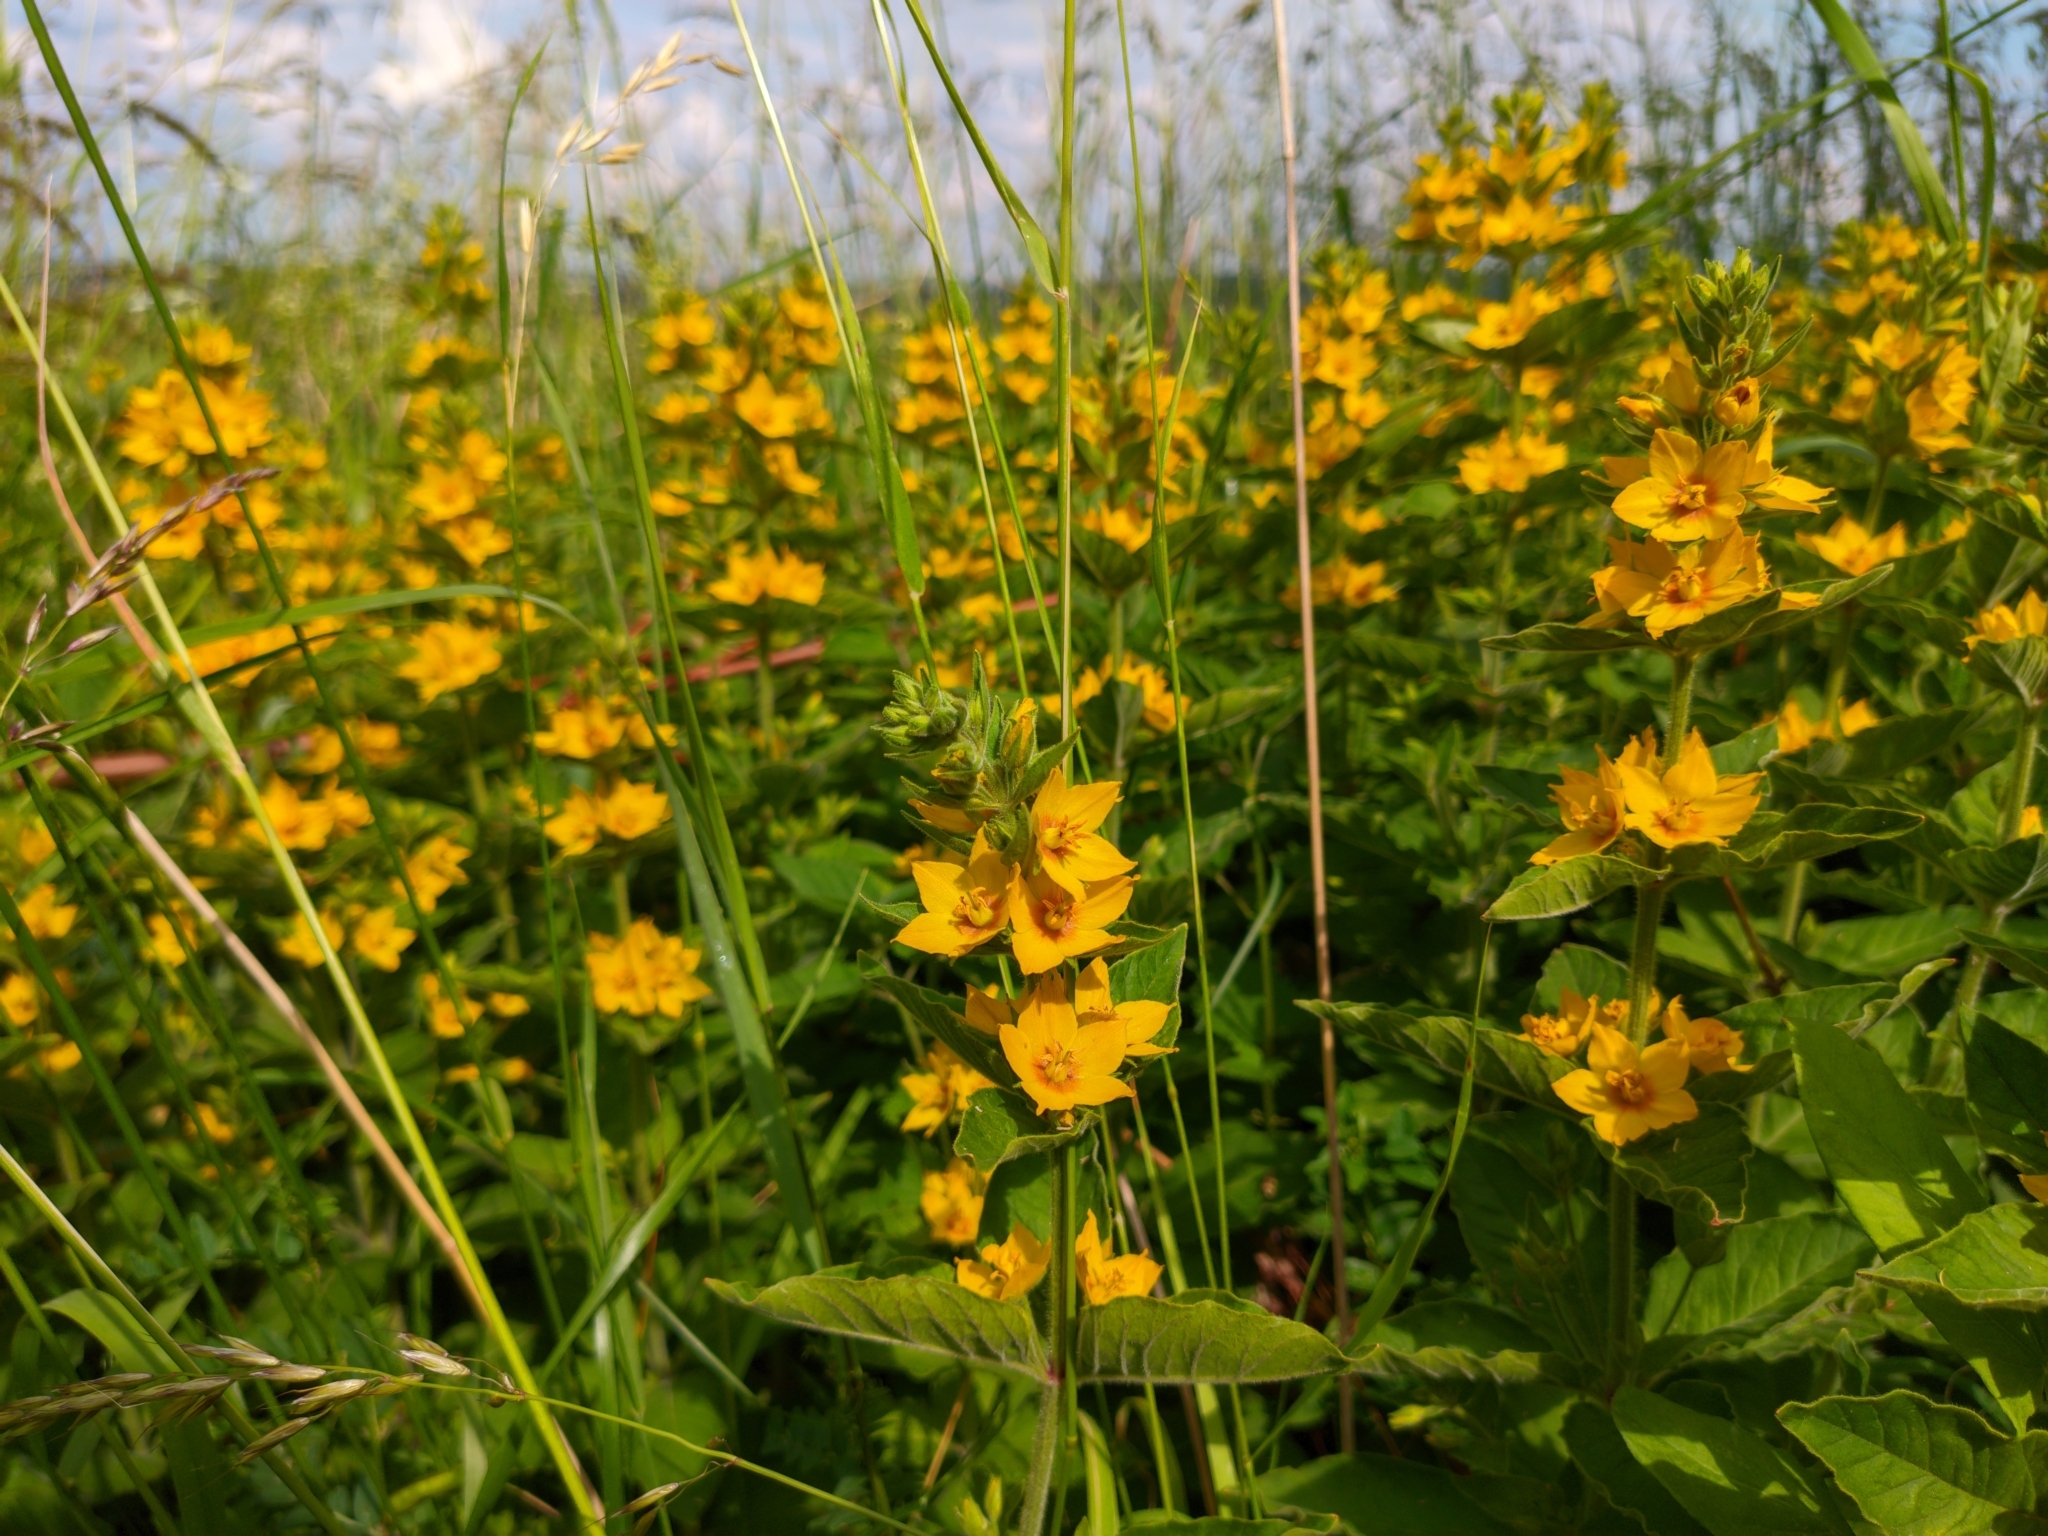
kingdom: Plantae
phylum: Tracheophyta
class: Magnoliopsida
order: Ericales
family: Primulaceae
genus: Lysimachia
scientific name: Lysimachia punctata
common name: Dotted loosestrife
